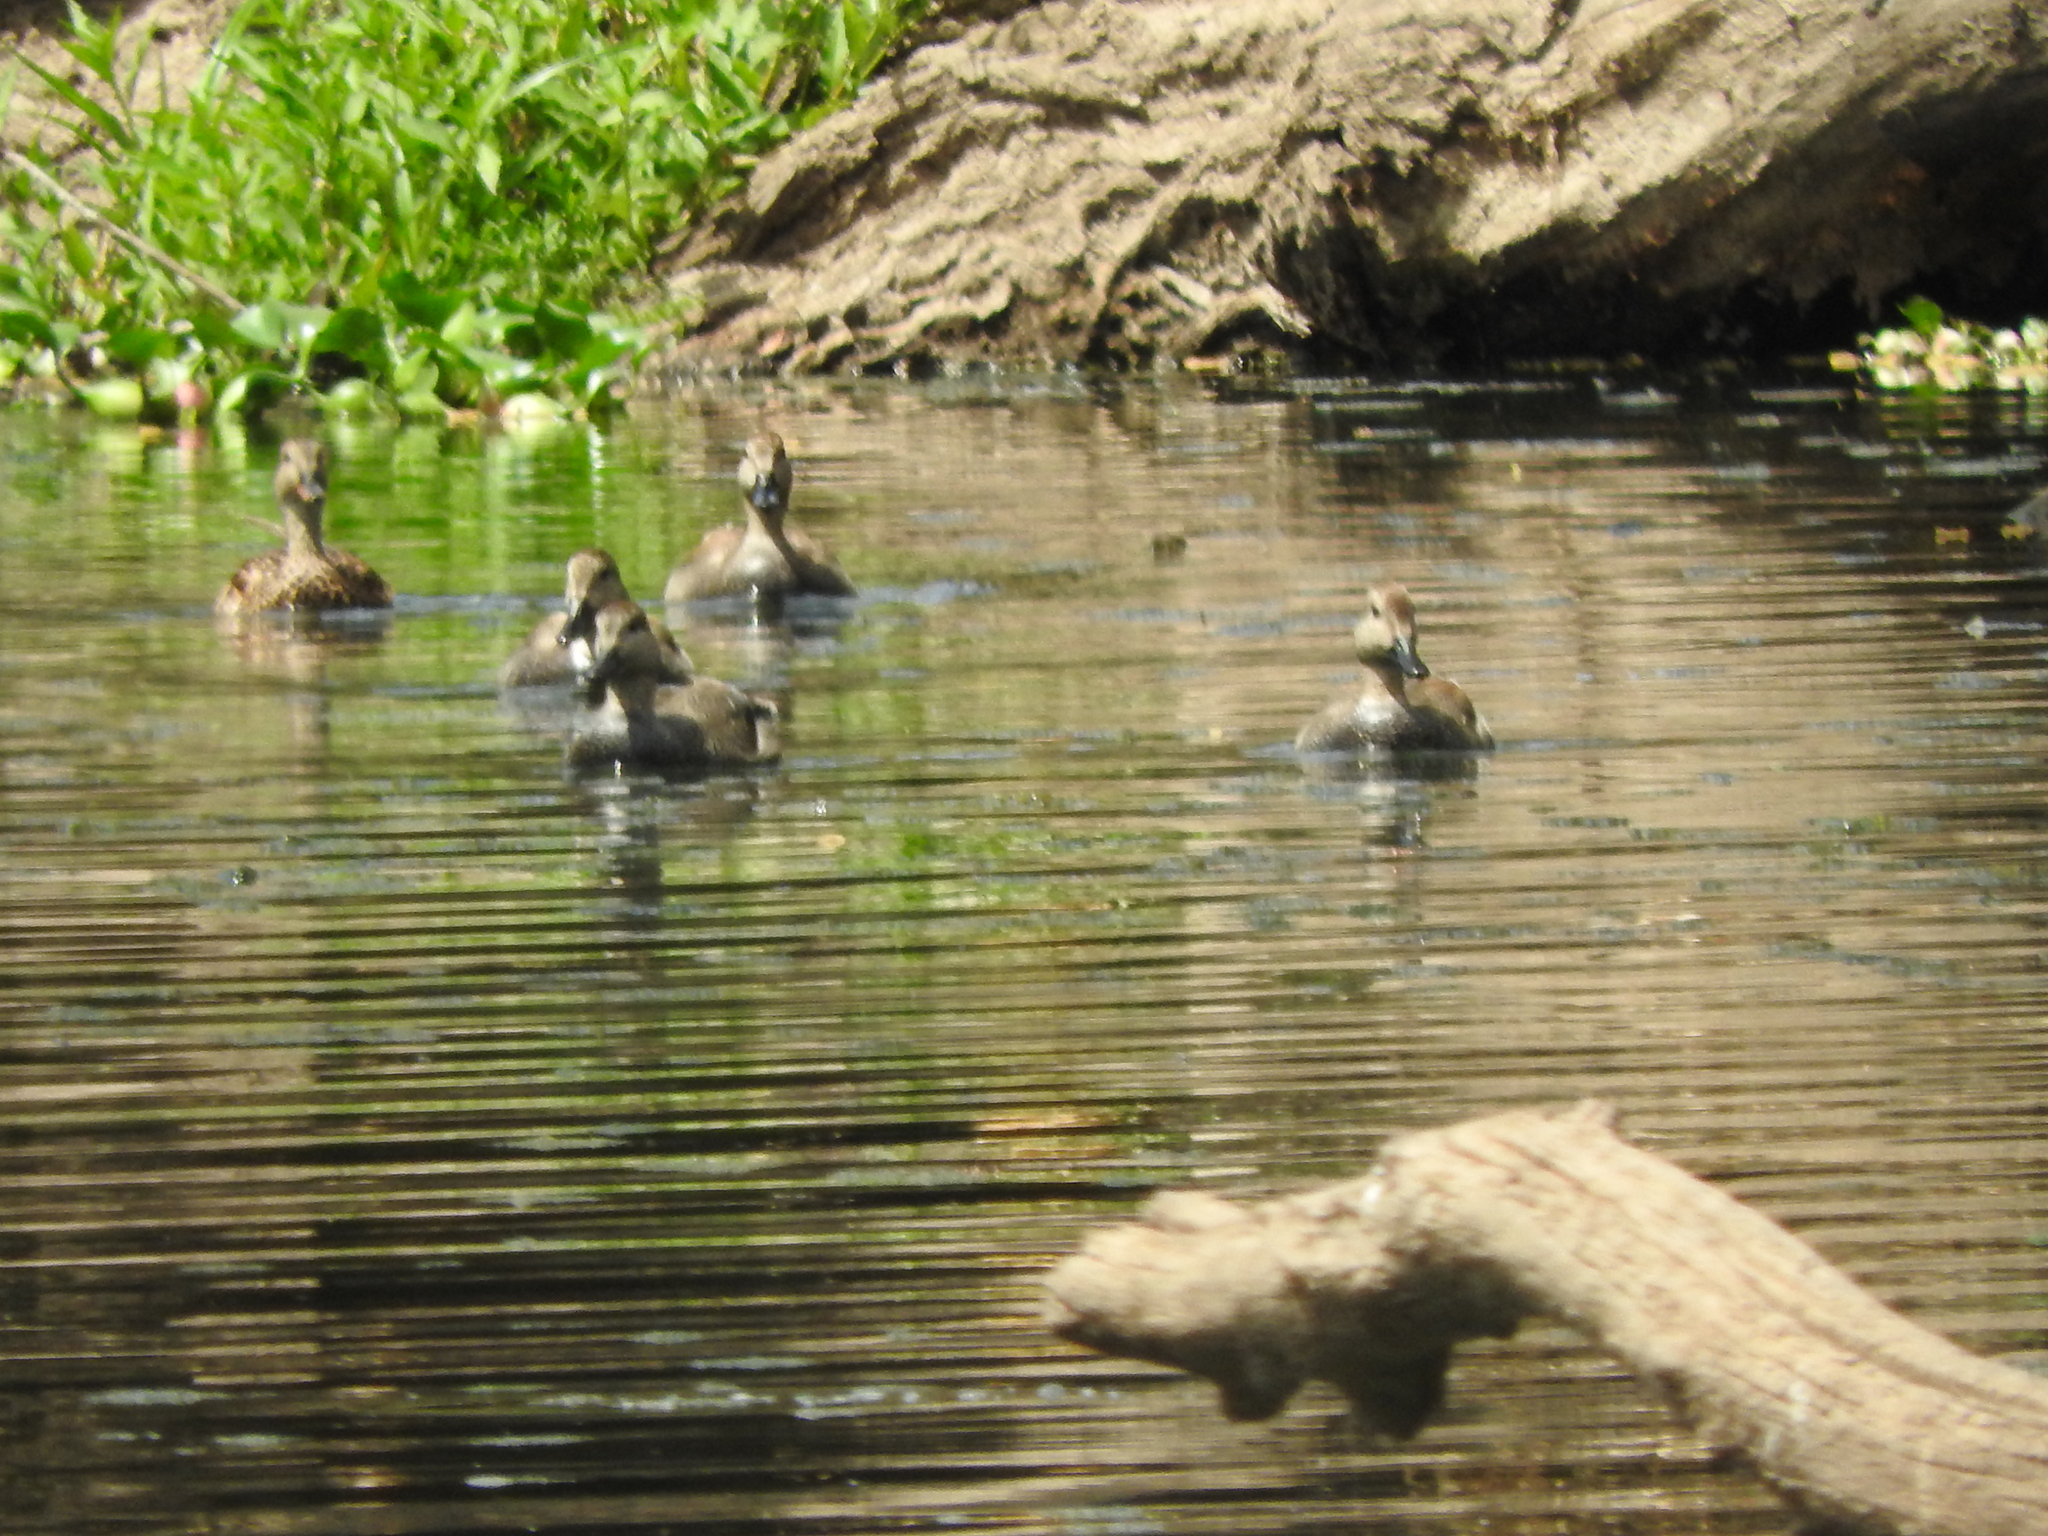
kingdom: Animalia
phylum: Chordata
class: Aves
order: Anseriformes
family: Anatidae
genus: Mareca
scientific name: Mareca strepera
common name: Gadwall
